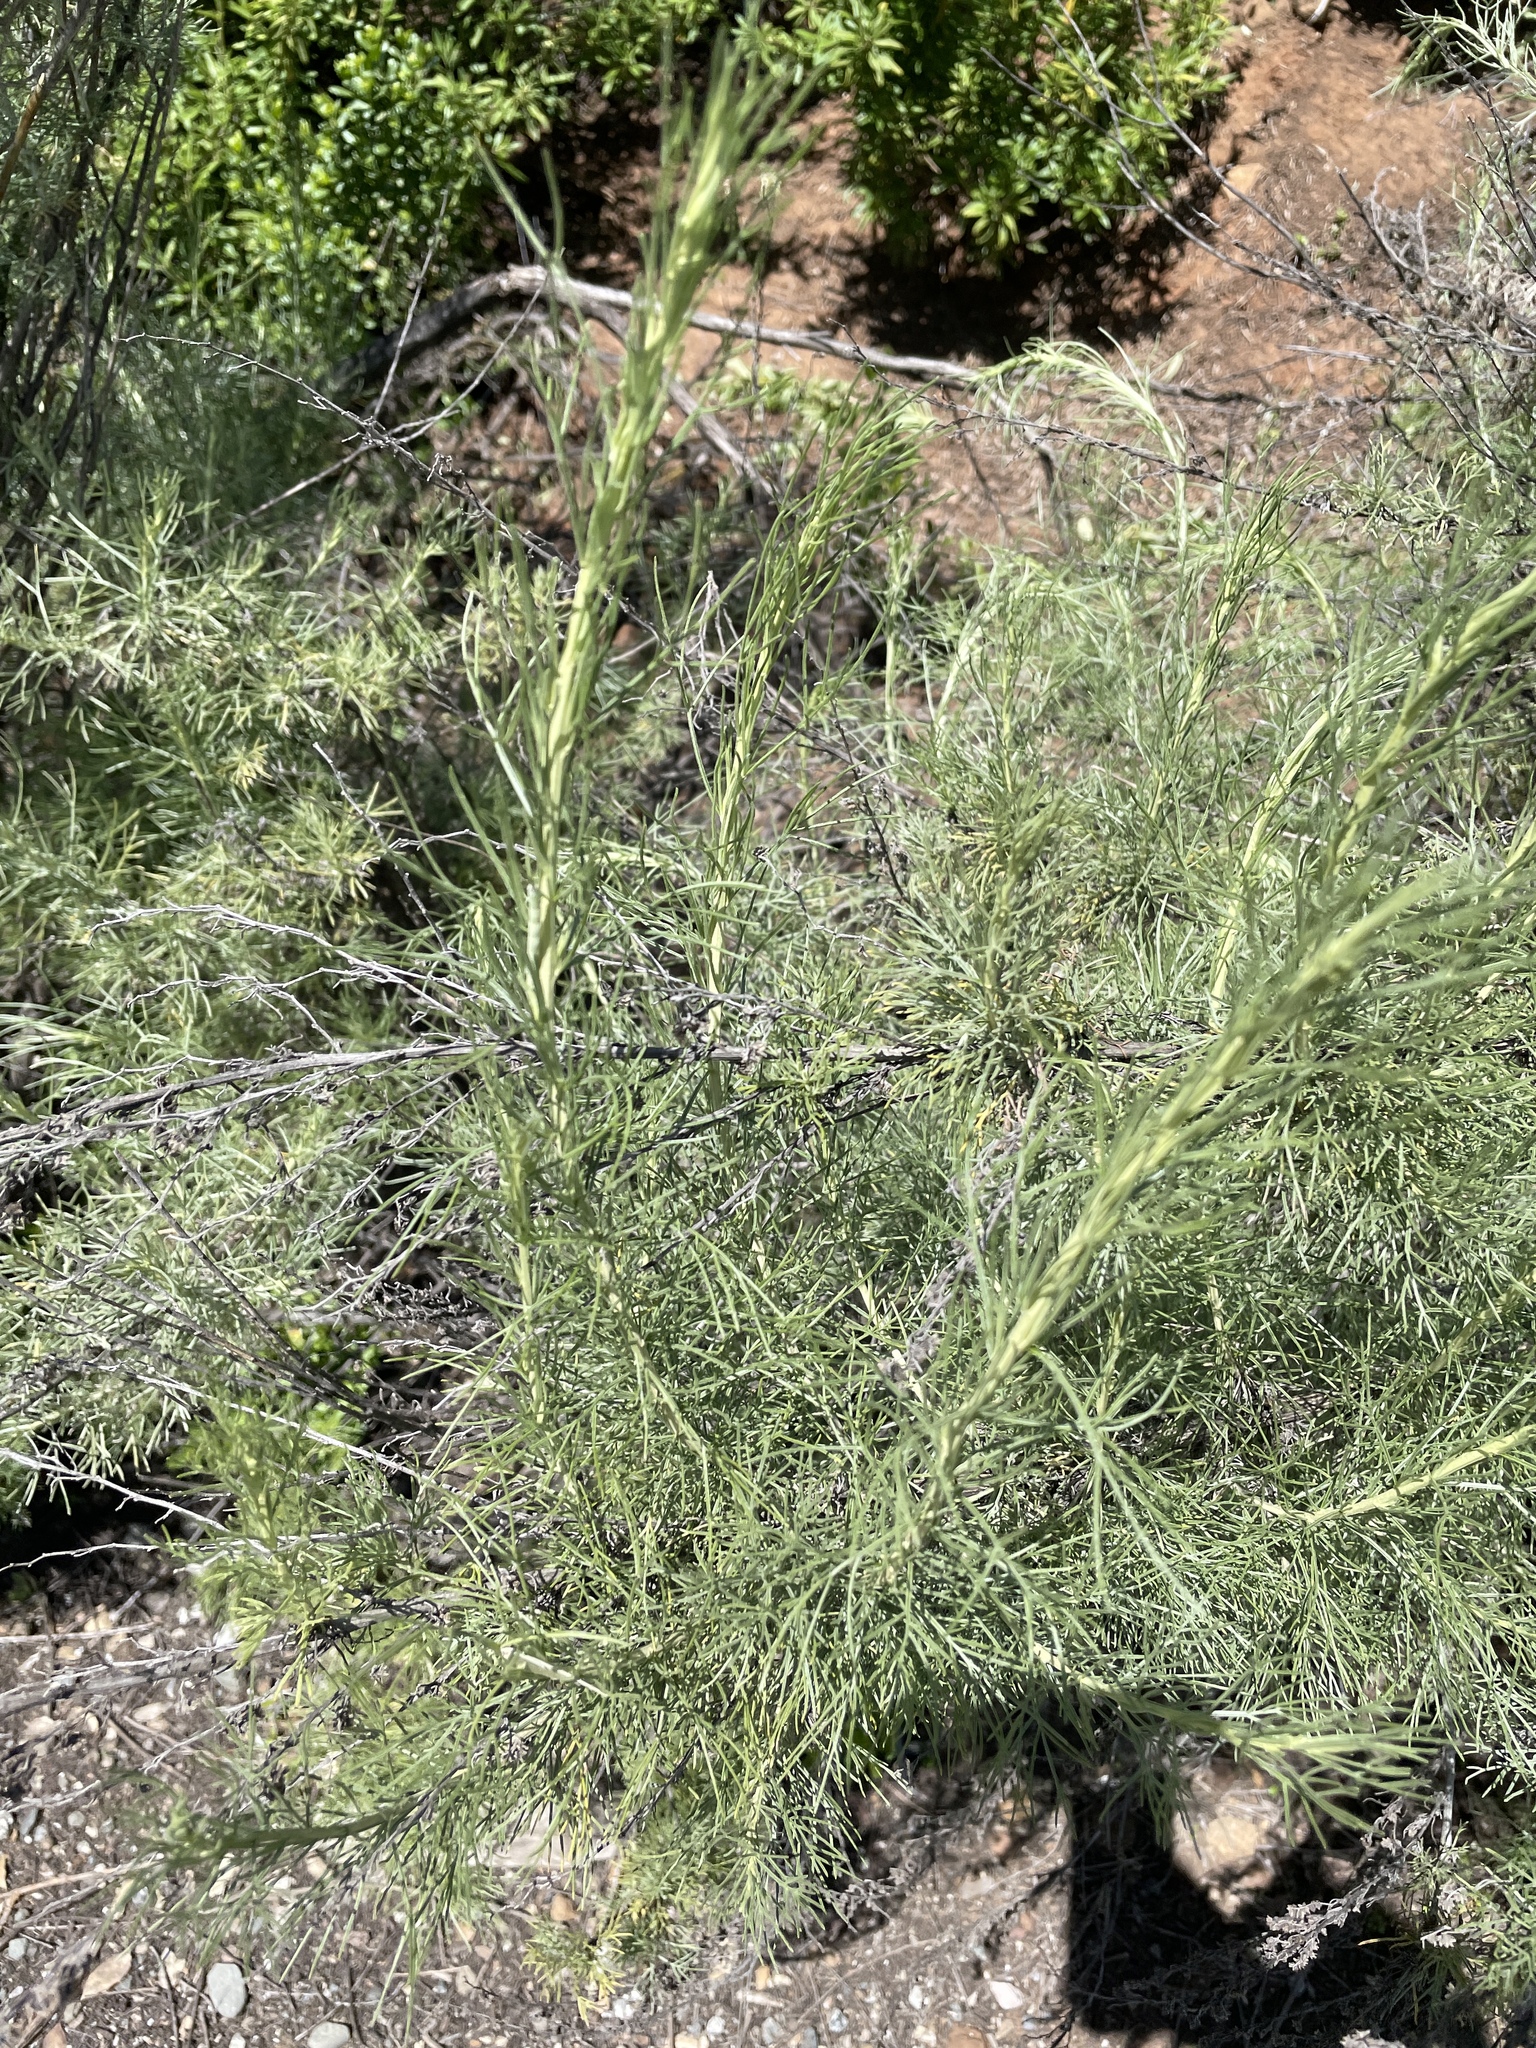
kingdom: Plantae
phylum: Tracheophyta
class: Magnoliopsida
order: Asterales
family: Asteraceae
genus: Artemisia
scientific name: Artemisia californica
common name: California sagebrush
